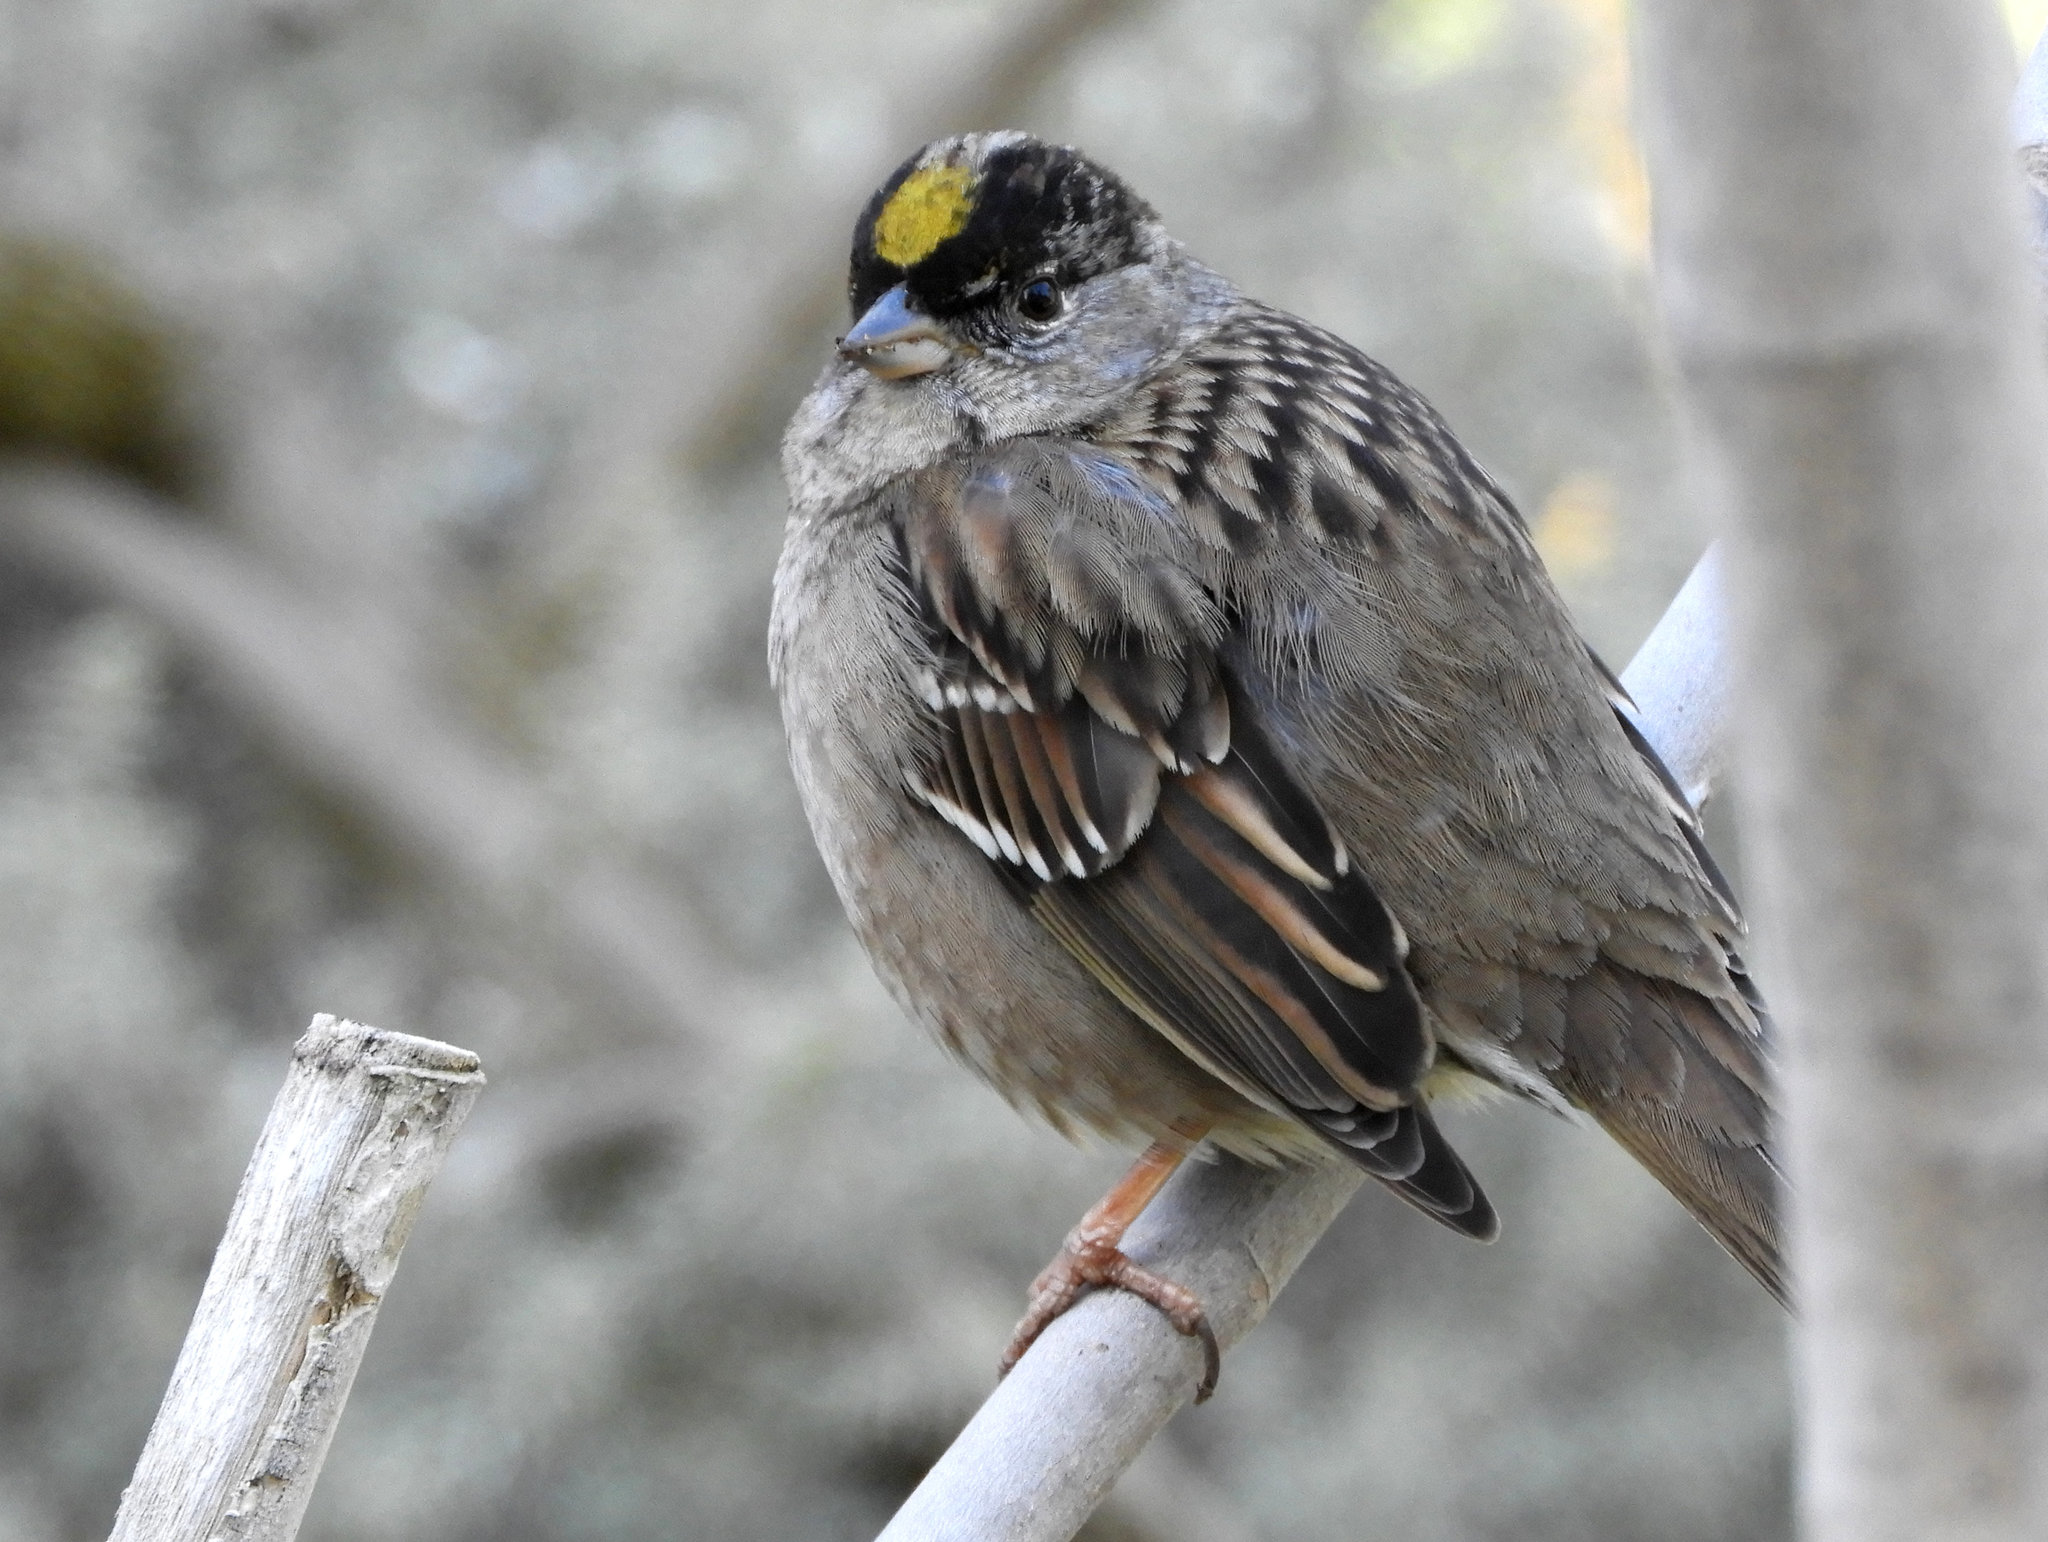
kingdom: Animalia
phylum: Chordata
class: Aves
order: Passeriformes
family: Passerellidae
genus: Zonotrichia
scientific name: Zonotrichia atricapilla
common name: Golden-crowned sparrow
